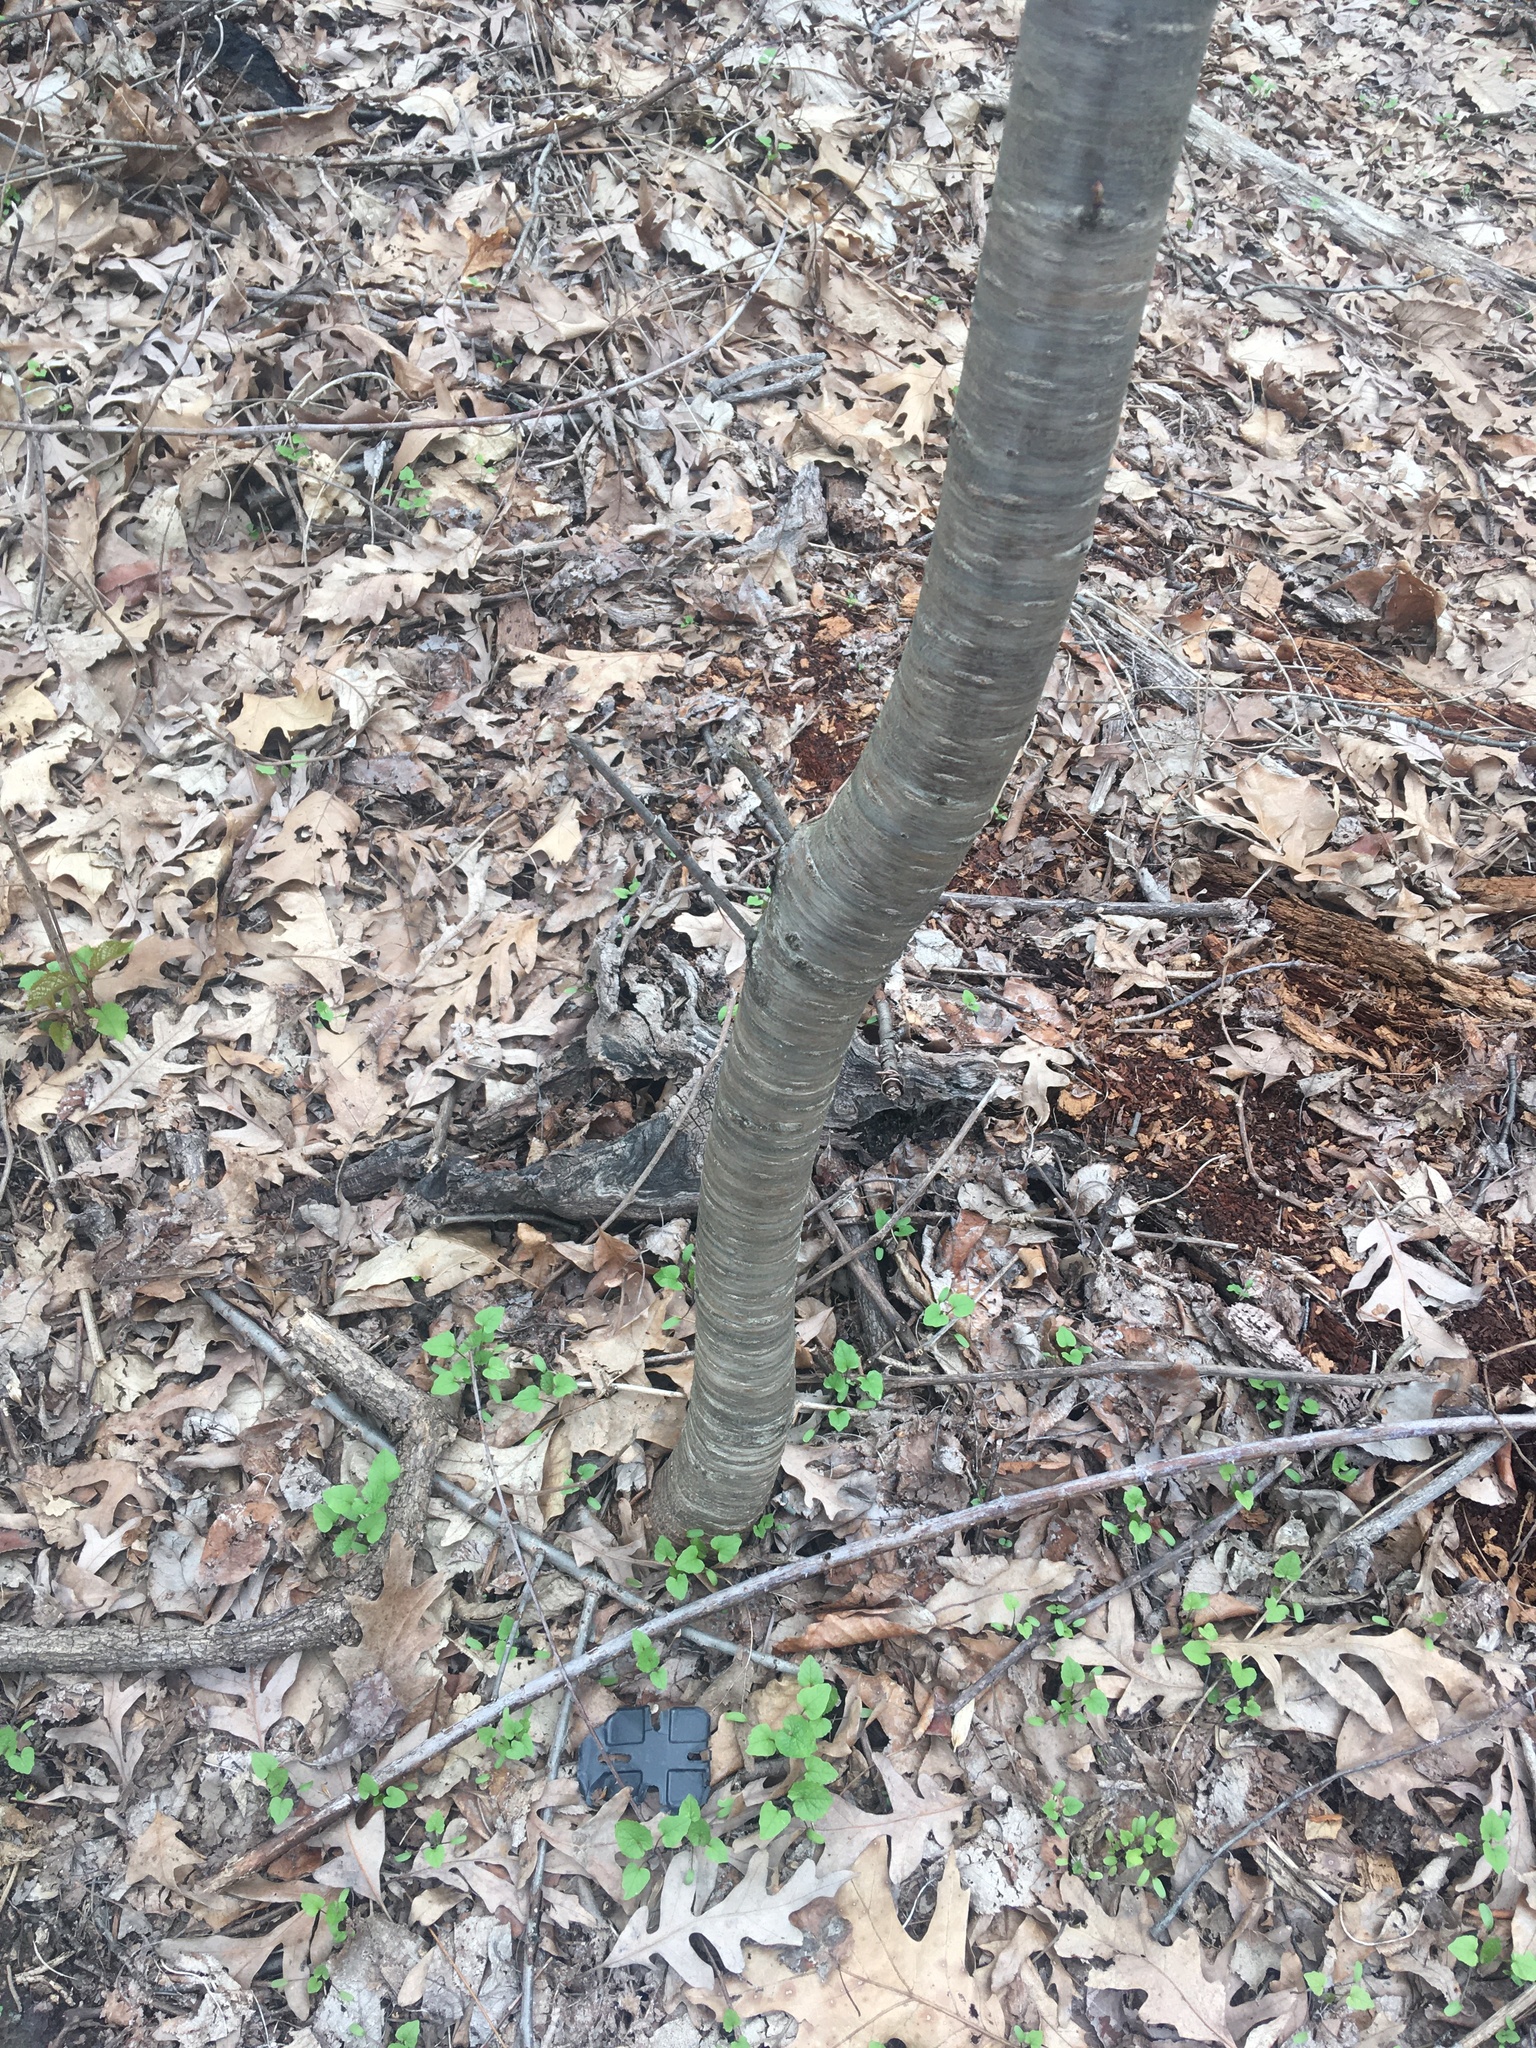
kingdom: Plantae
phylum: Tracheophyta
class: Magnoliopsida
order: Rosales
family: Rosaceae
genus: Prunus
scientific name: Prunus avium
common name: Sweet cherry
